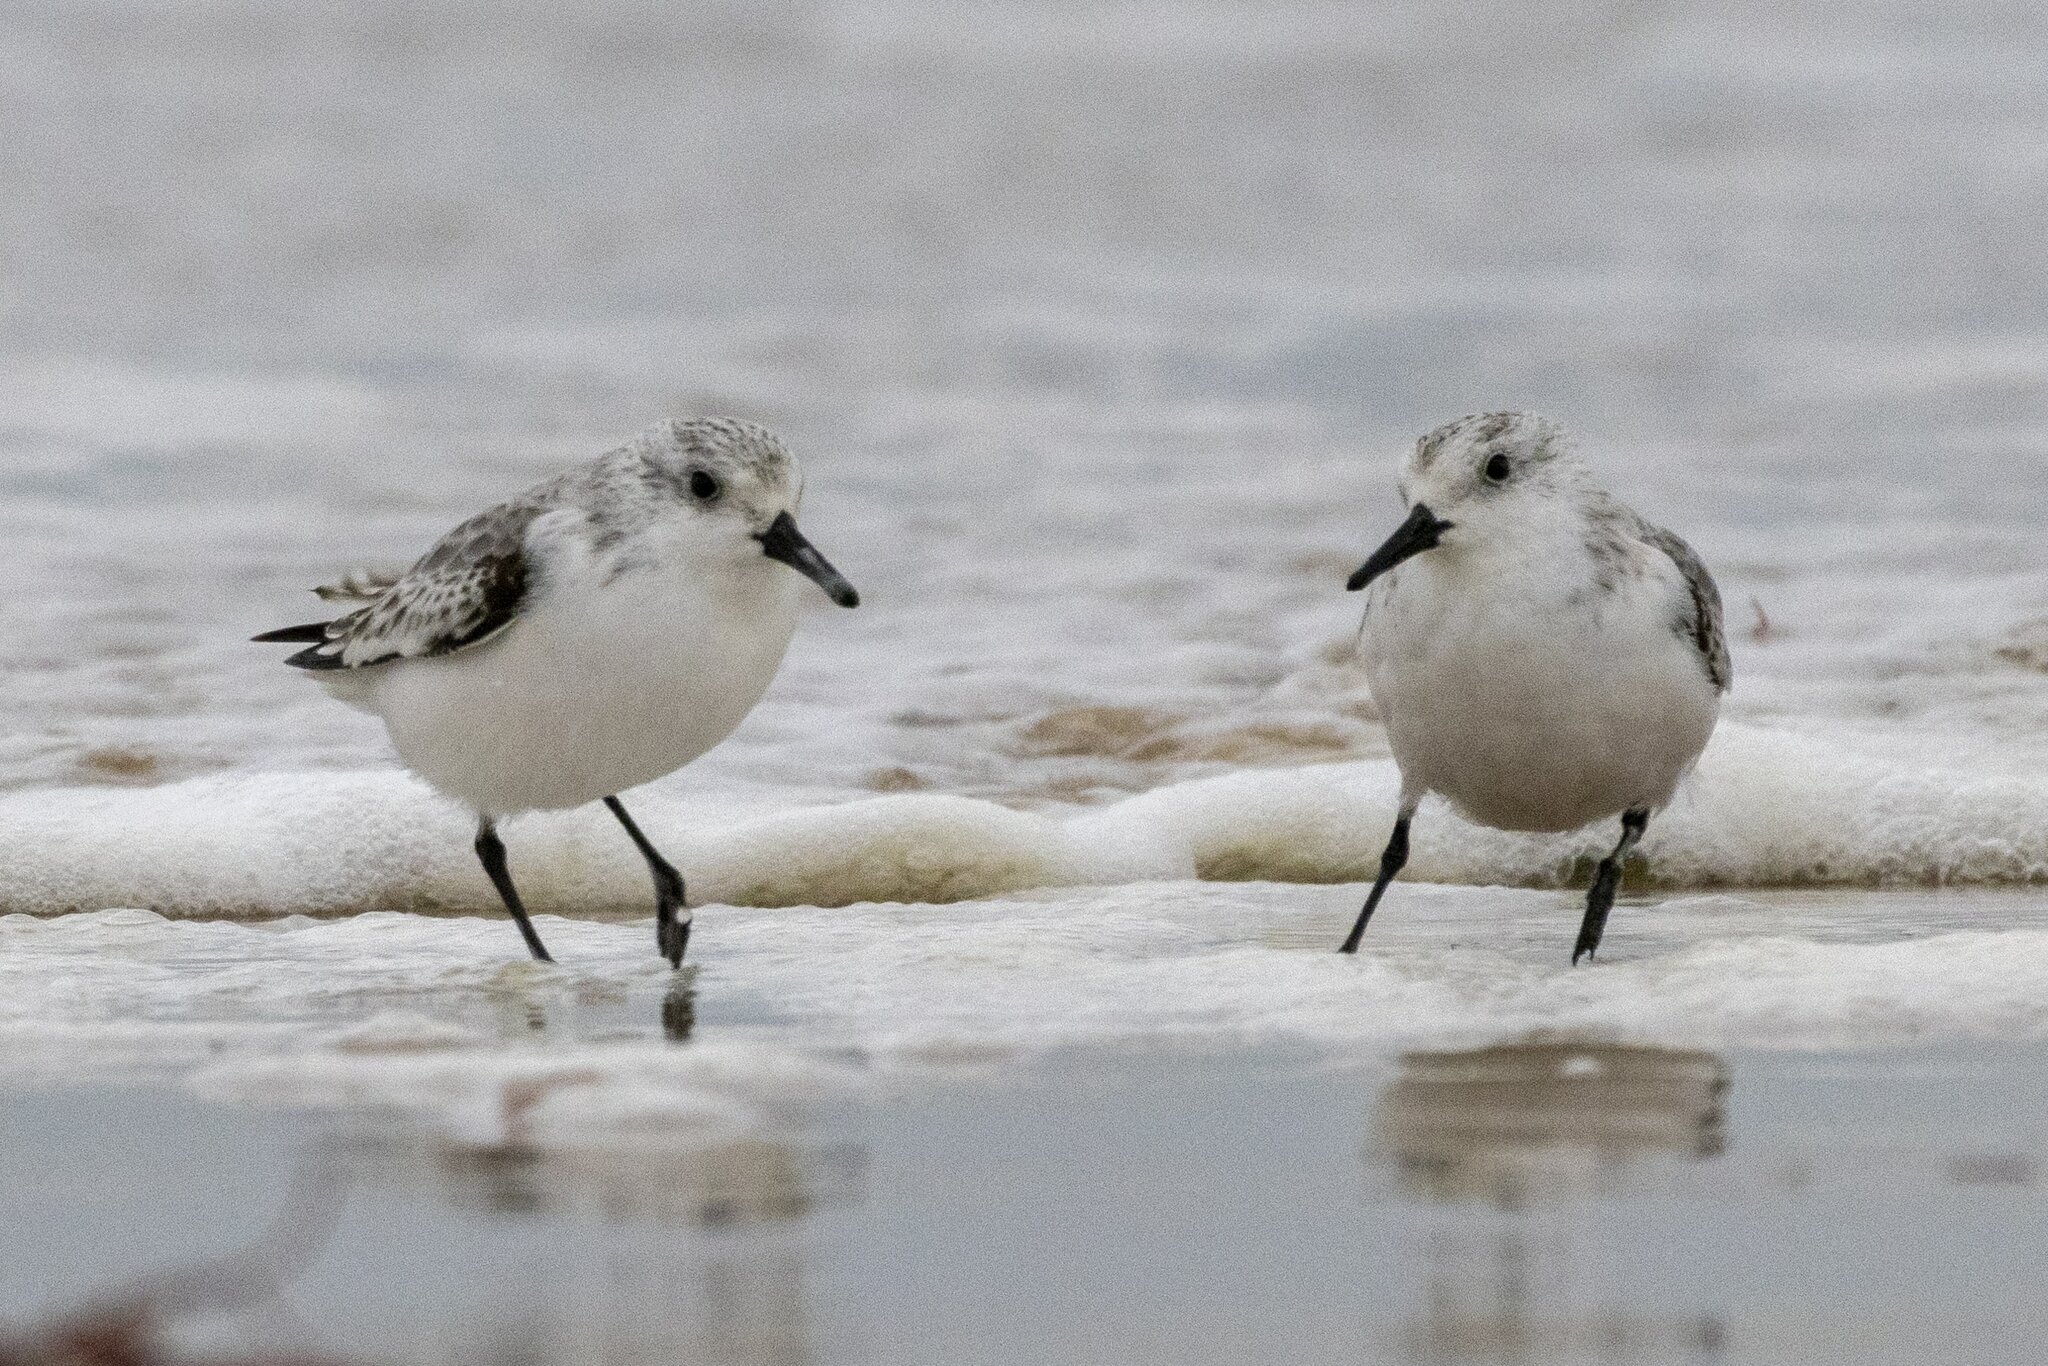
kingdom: Animalia
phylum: Chordata
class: Aves
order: Charadriiformes
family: Scolopacidae
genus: Calidris
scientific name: Calidris alba
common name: Sanderling
